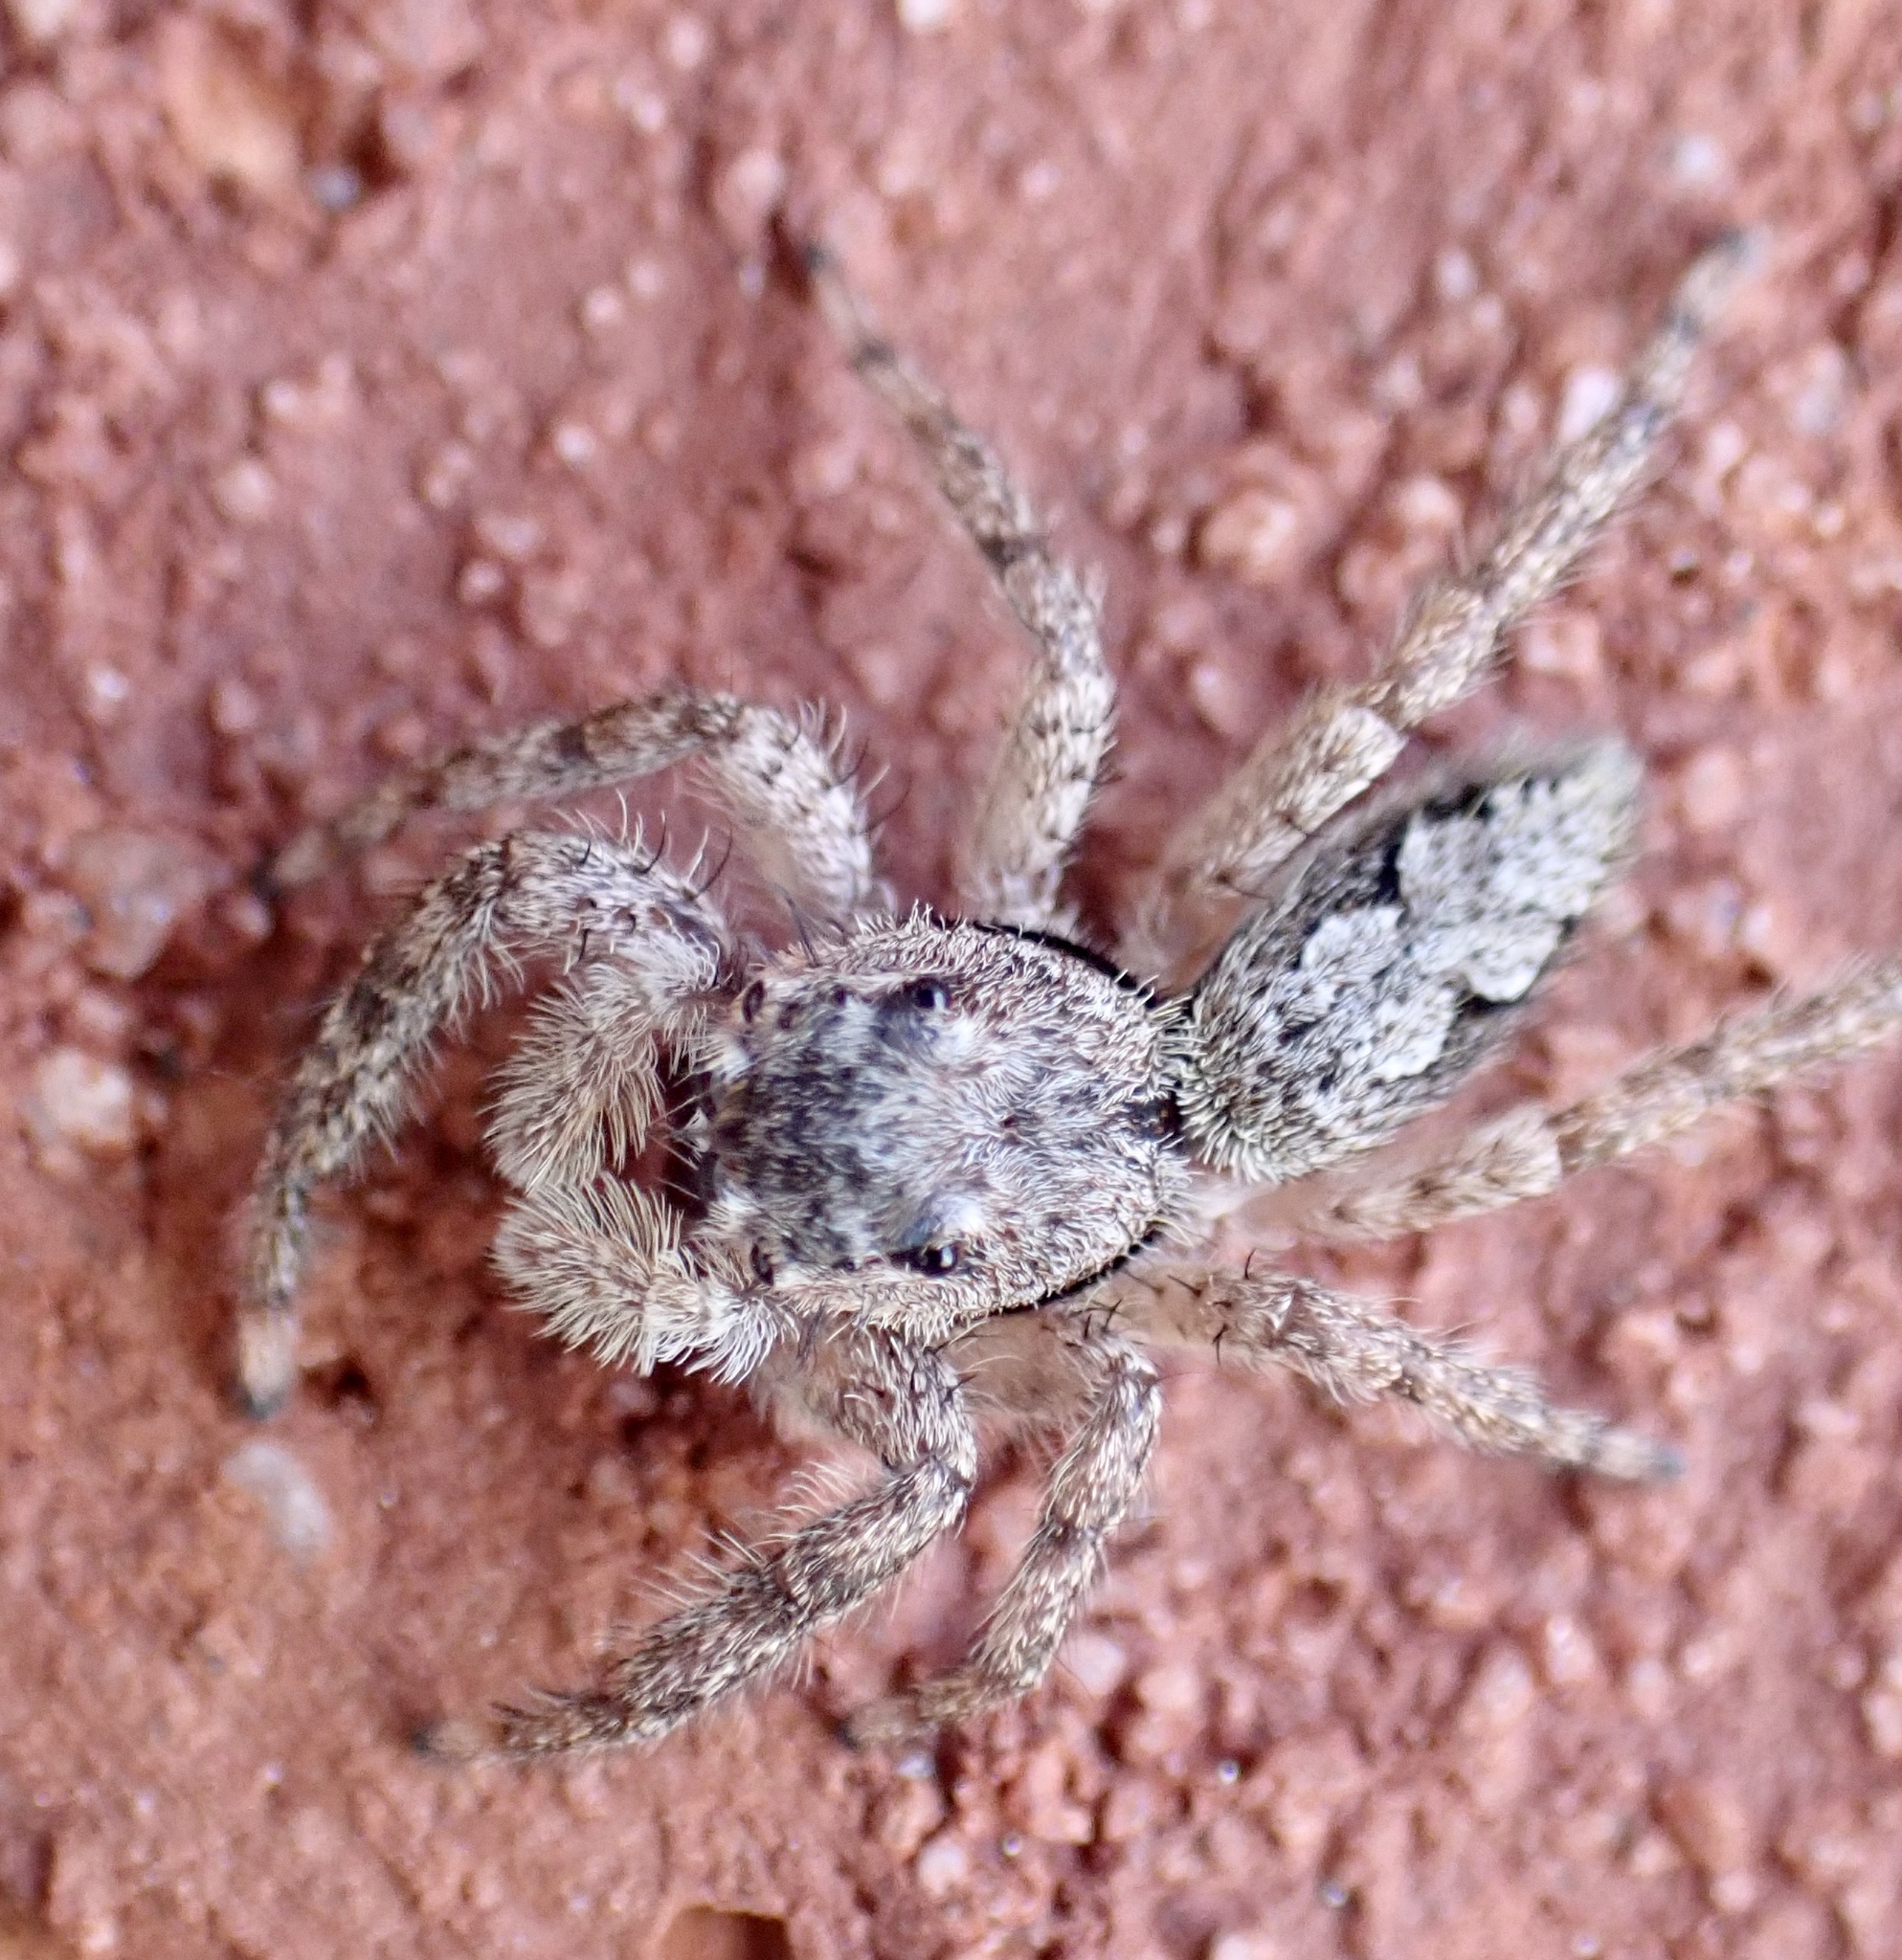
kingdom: Animalia
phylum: Arthropoda
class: Arachnida
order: Araneae
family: Salticidae
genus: Platycryptus
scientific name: Platycryptus undatus
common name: Tan jumping spider
